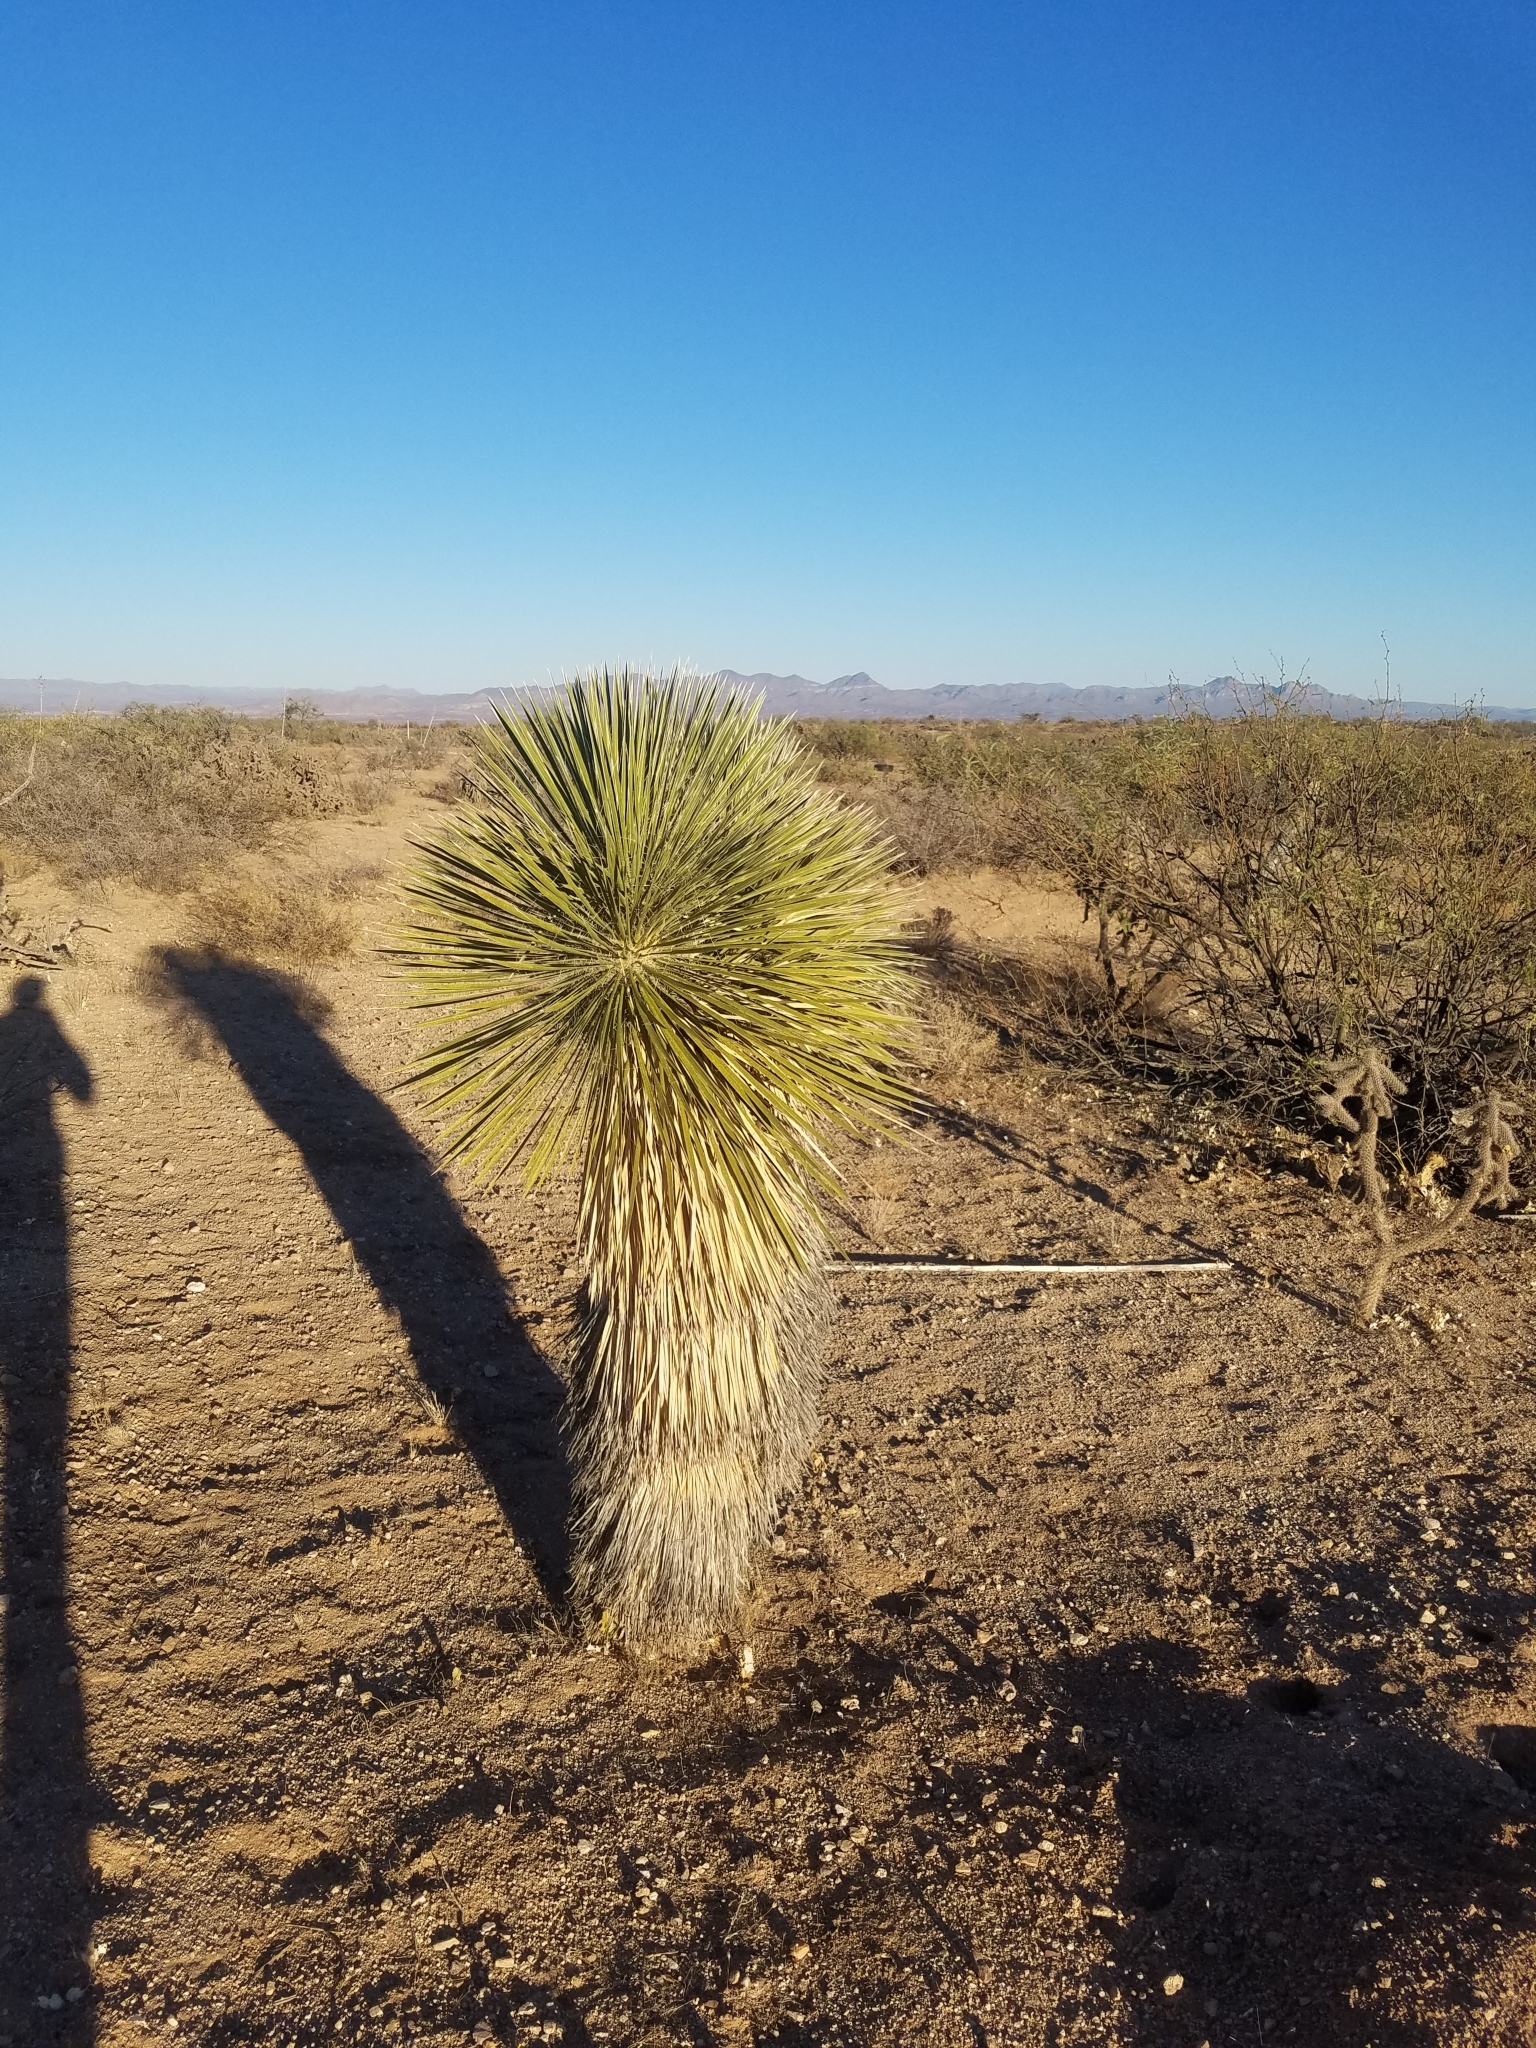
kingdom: Plantae
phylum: Tracheophyta
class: Liliopsida
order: Asparagales
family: Asparagaceae
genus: Yucca
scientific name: Yucca elata
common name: Palmella
